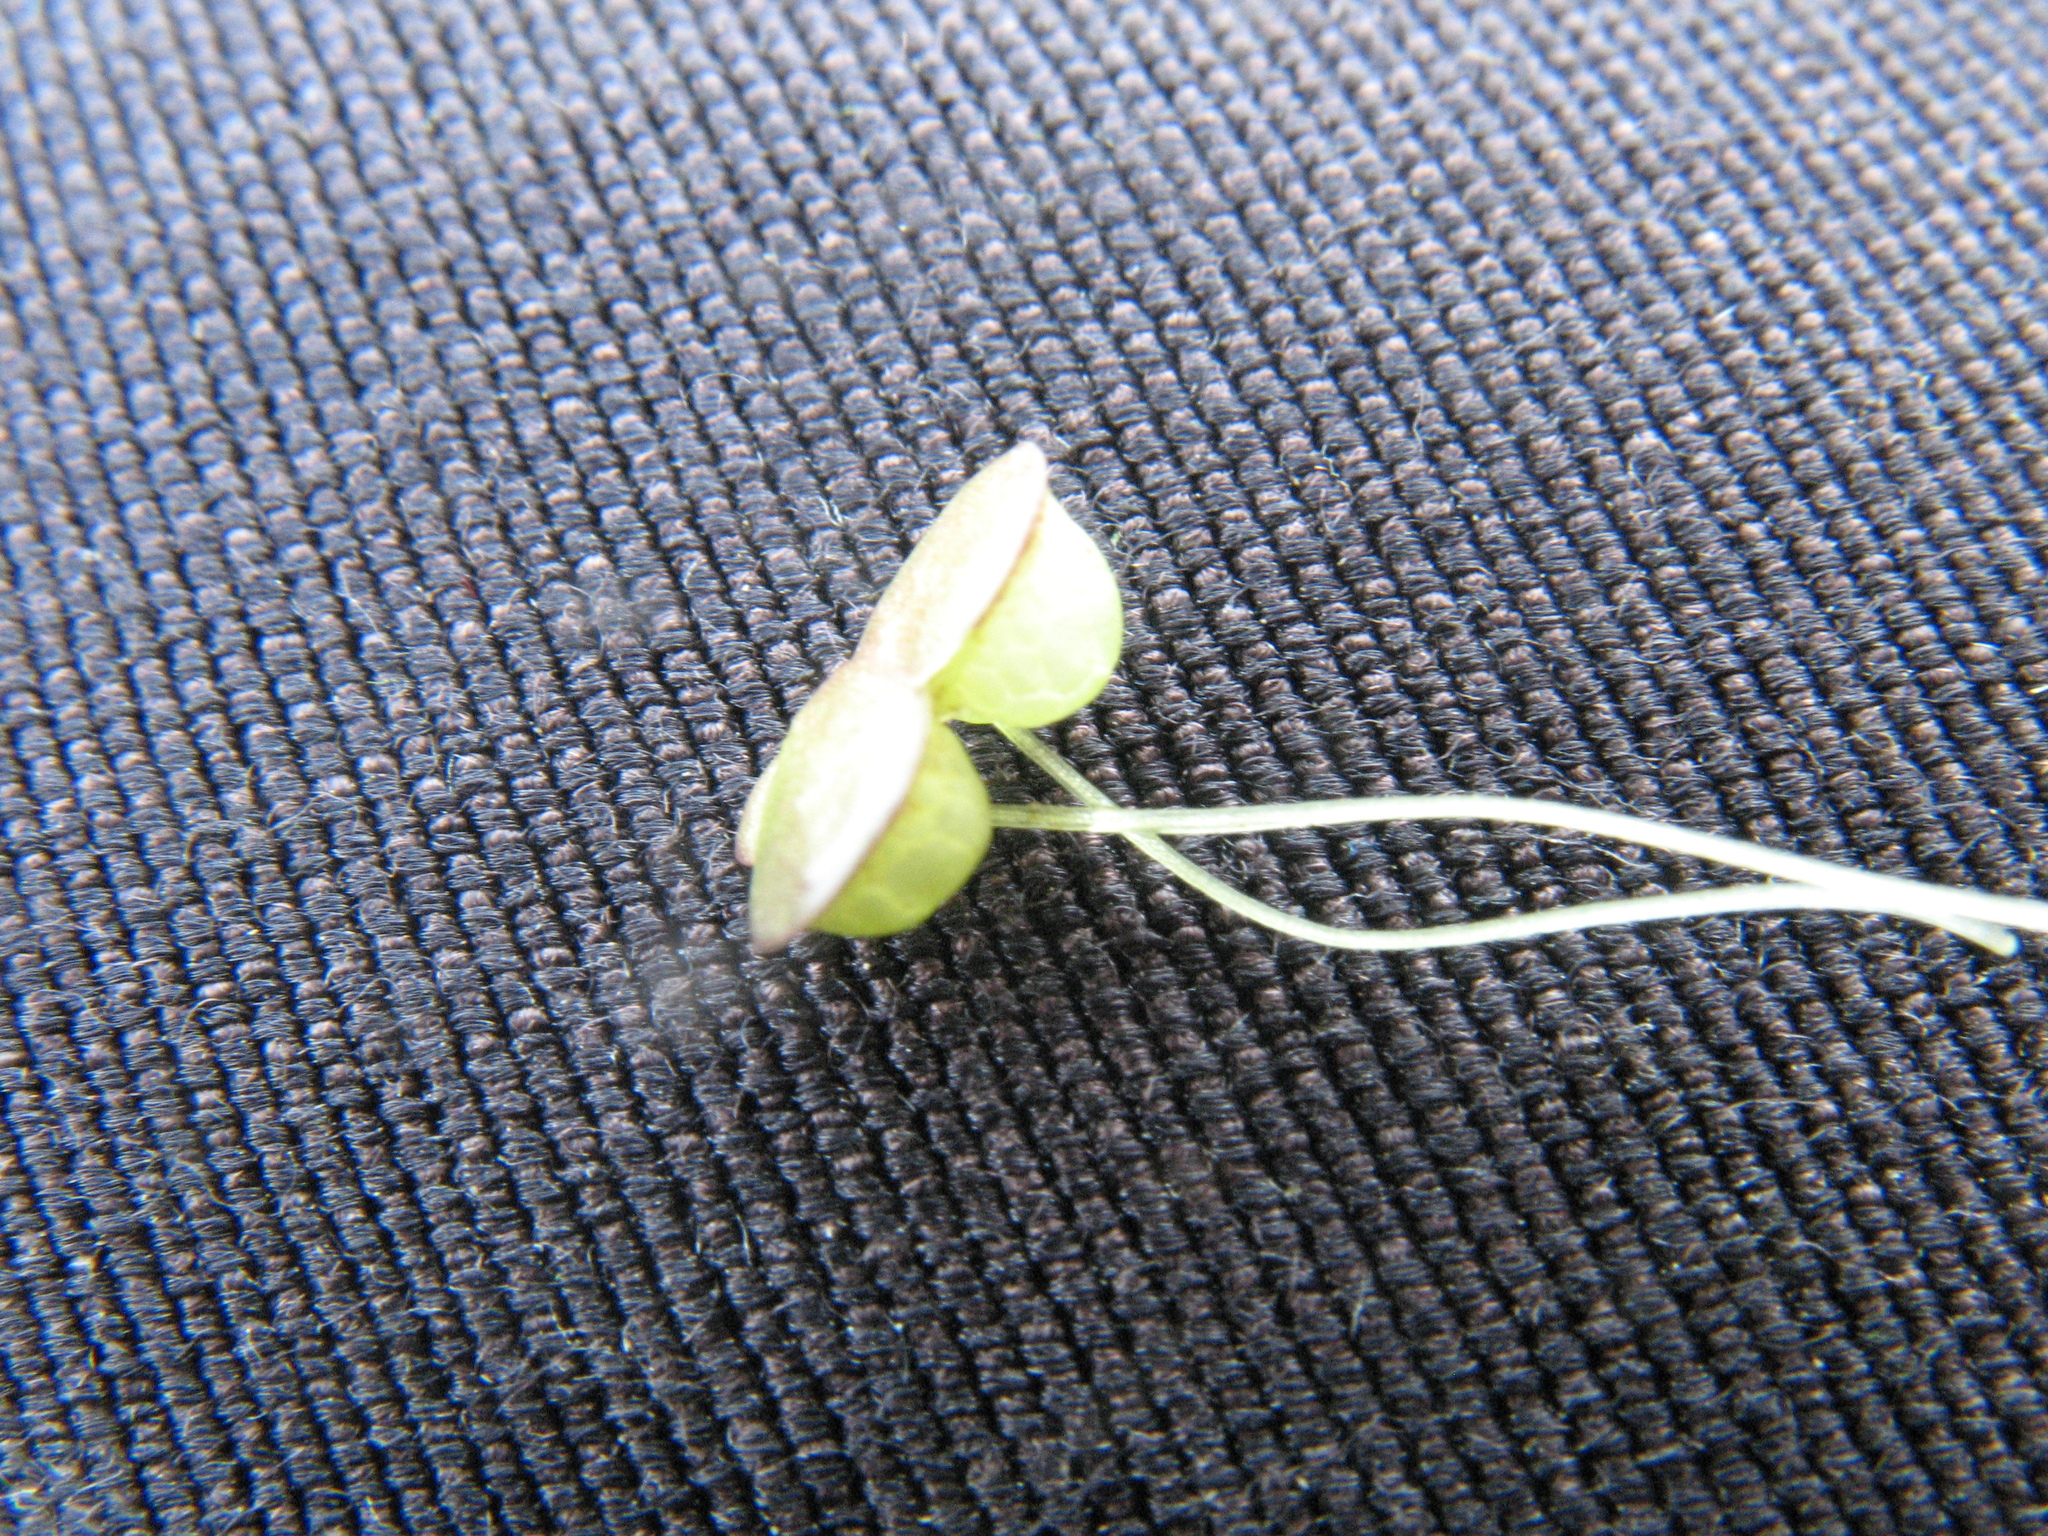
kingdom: Plantae
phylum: Tracheophyta
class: Liliopsida
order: Alismatales
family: Araceae
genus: Lemna
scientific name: Lemna gibba
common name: Fat duckweed
